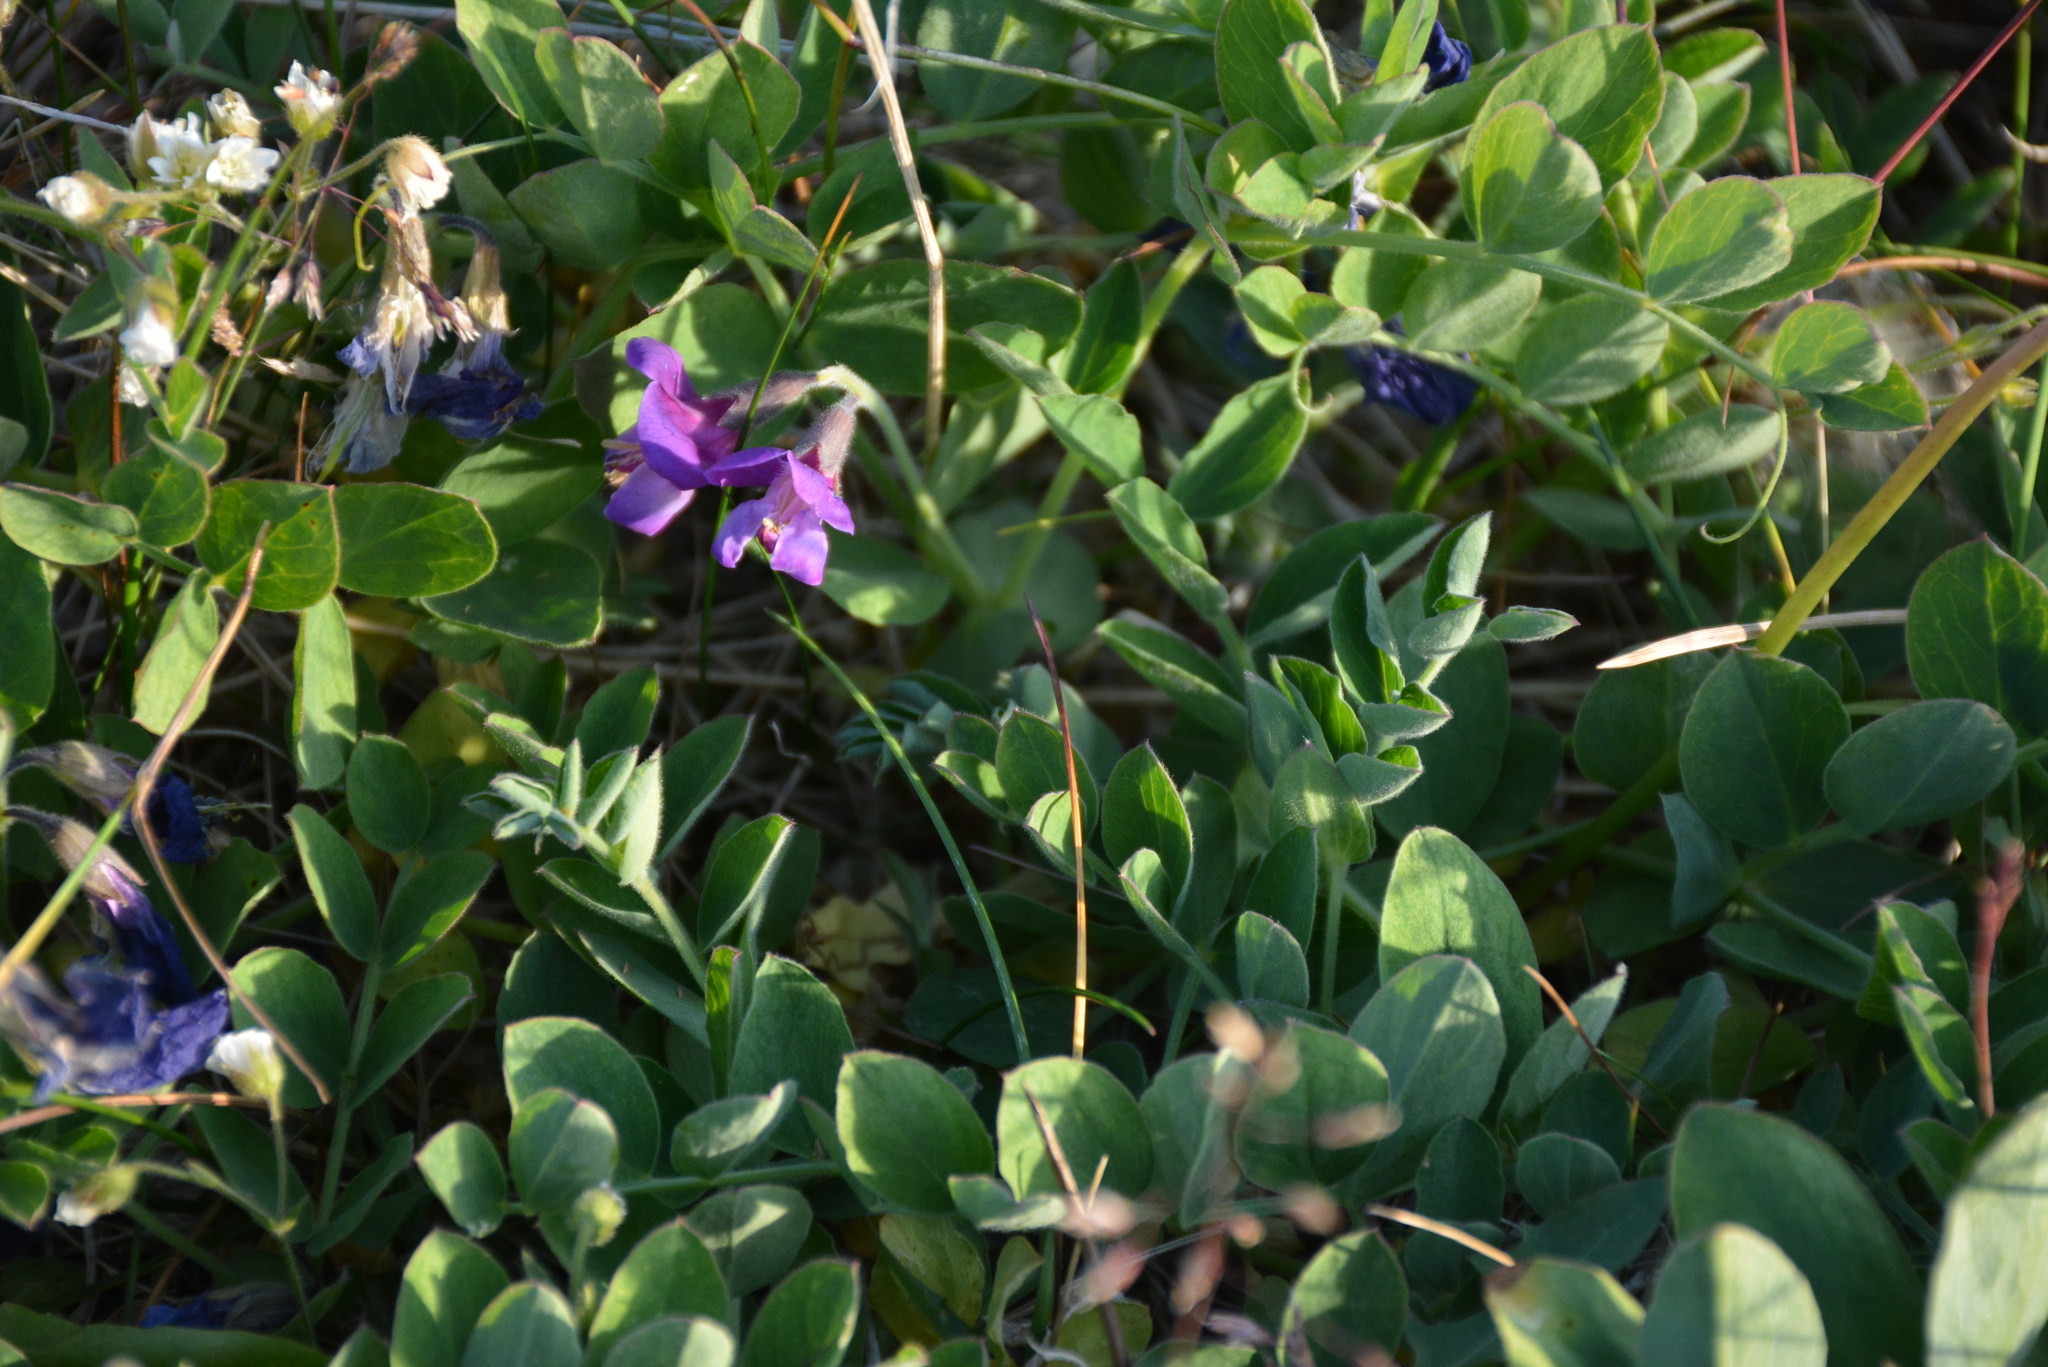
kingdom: Plantae
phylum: Tracheophyta
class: Magnoliopsida
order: Fabales
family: Fabaceae
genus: Lathyrus
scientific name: Lathyrus japonicus
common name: Sea pea
